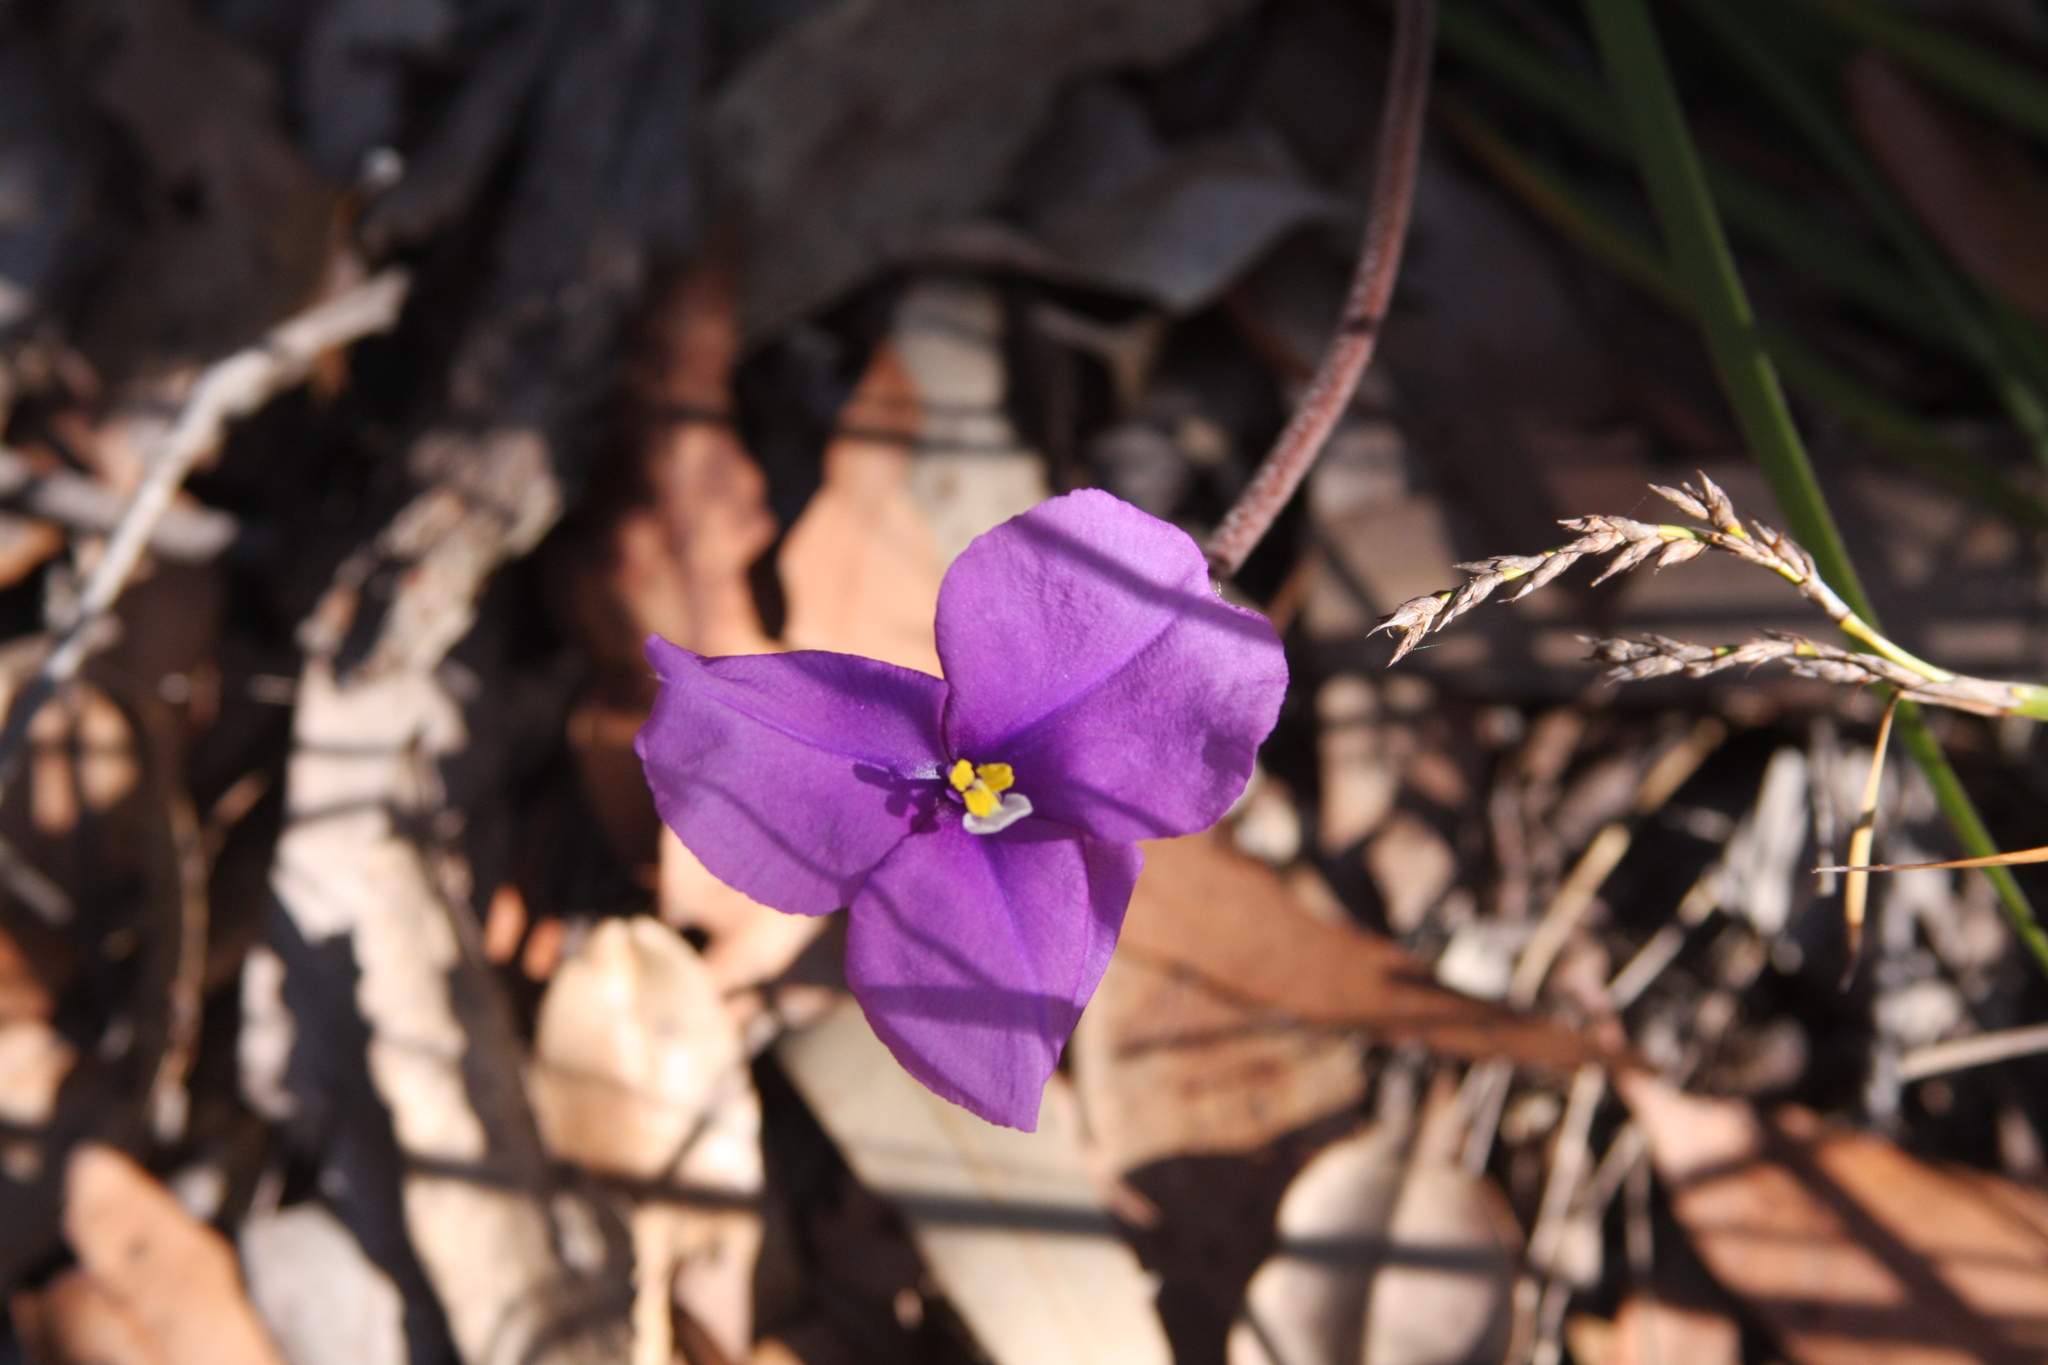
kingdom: Plantae
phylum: Tracheophyta
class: Liliopsida
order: Asparagales
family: Iridaceae
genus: Patersonia
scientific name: Patersonia sericea
